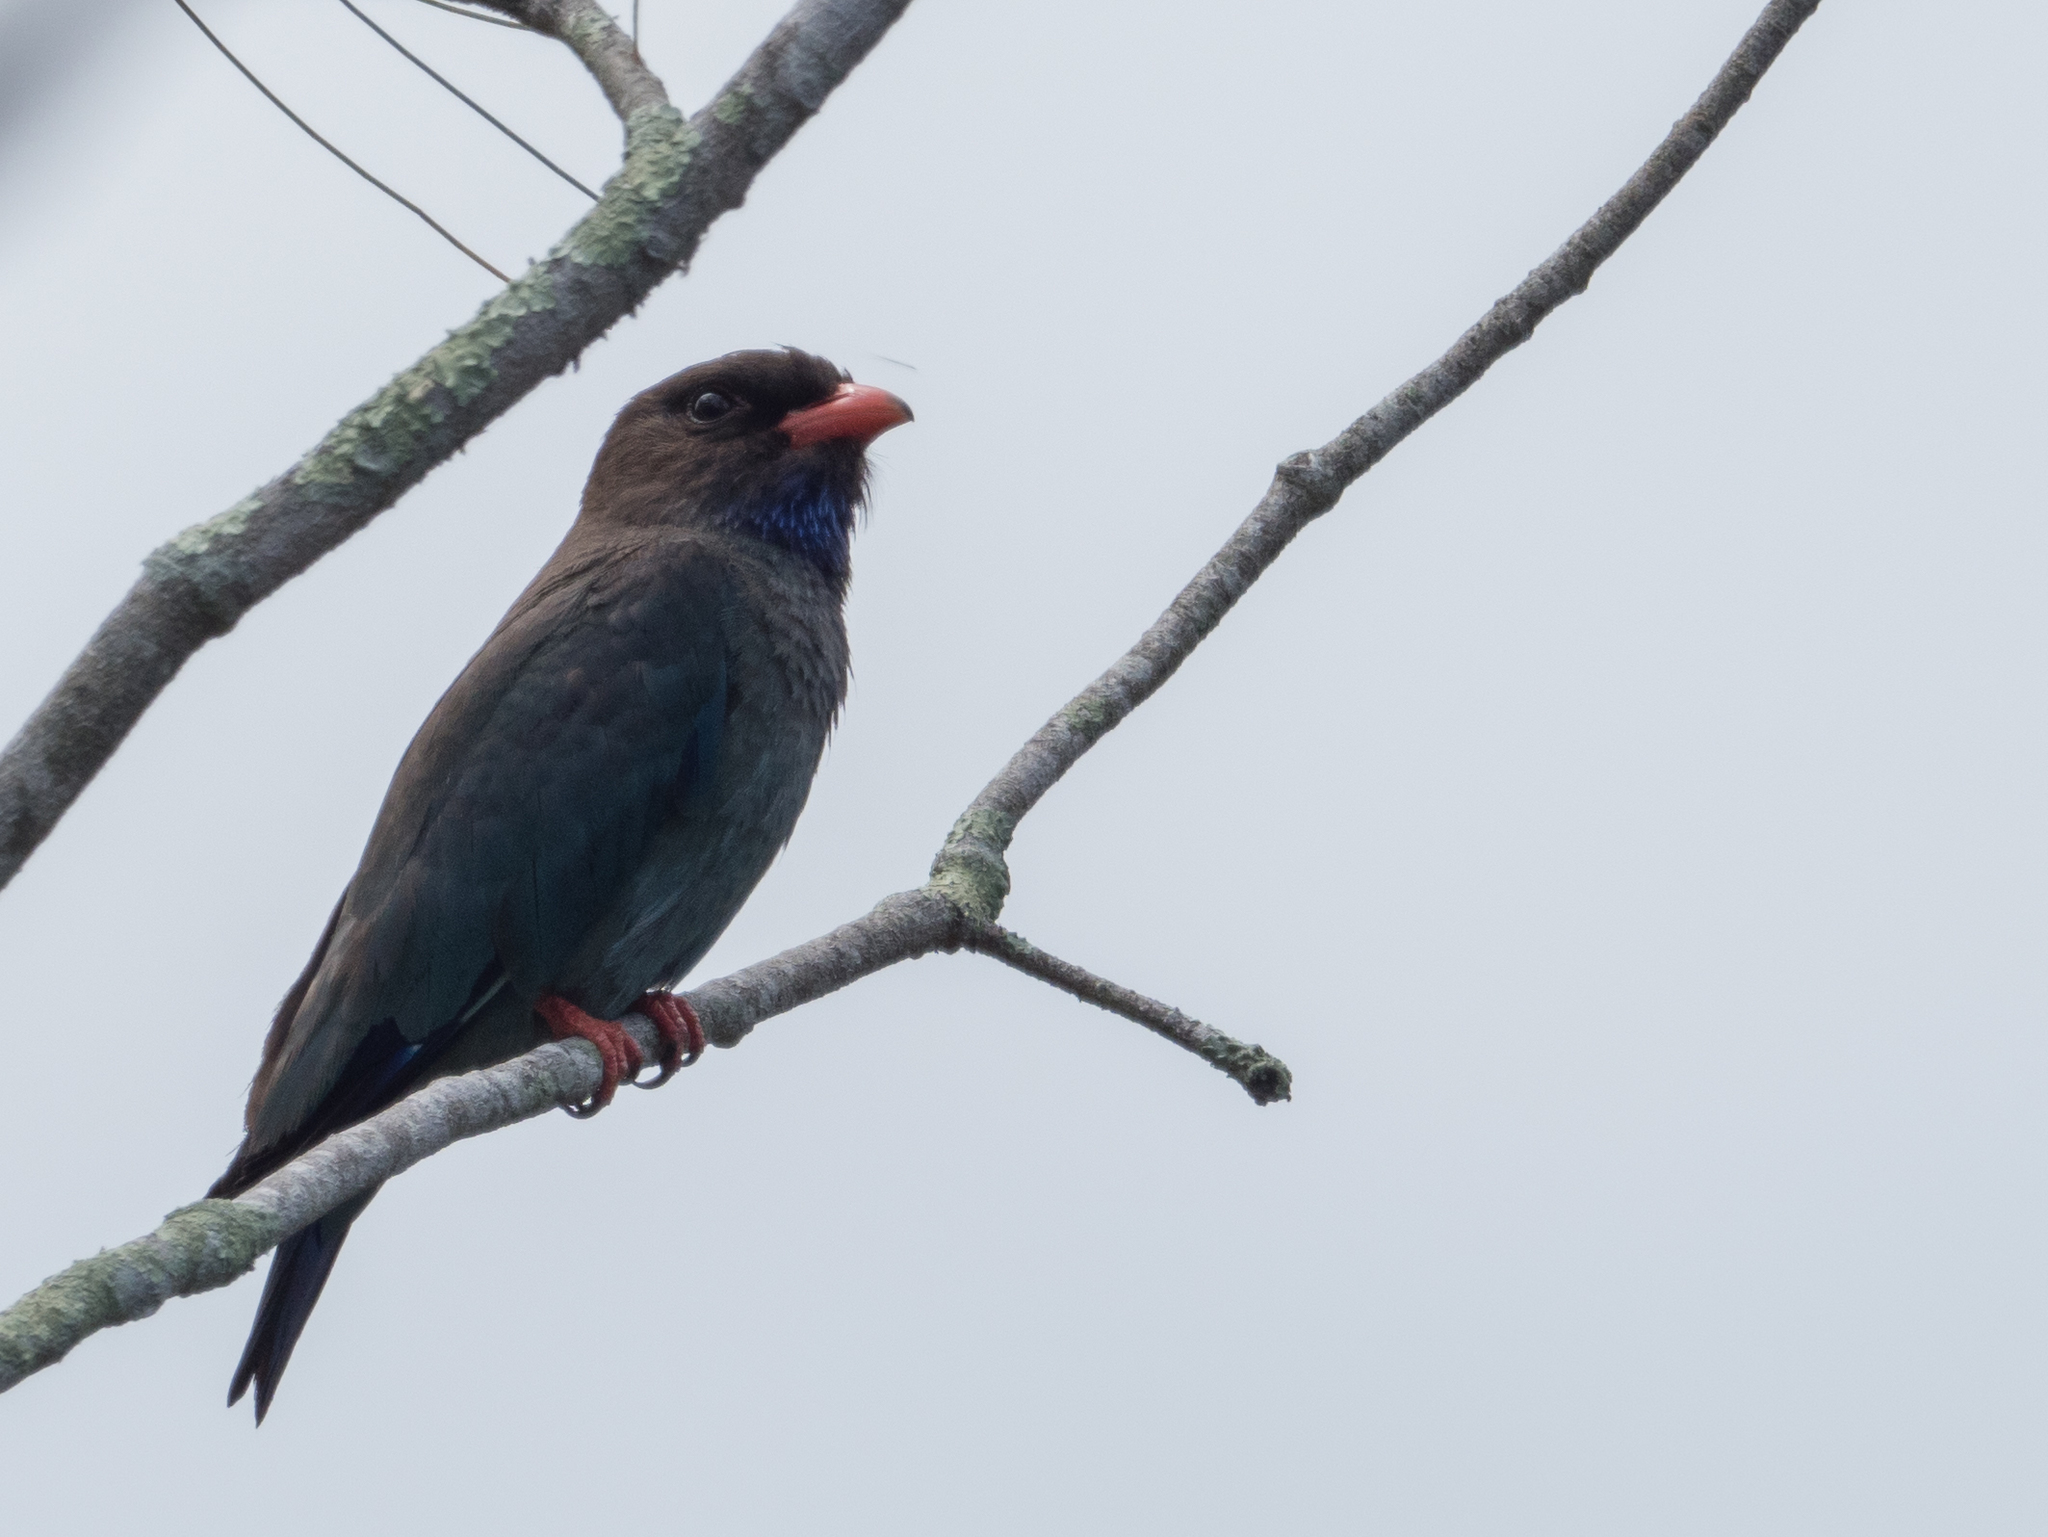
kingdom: Animalia
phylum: Chordata
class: Aves
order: Coraciiformes
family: Coraciidae
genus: Eurystomus
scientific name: Eurystomus orientalis
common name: Oriental dollarbird
